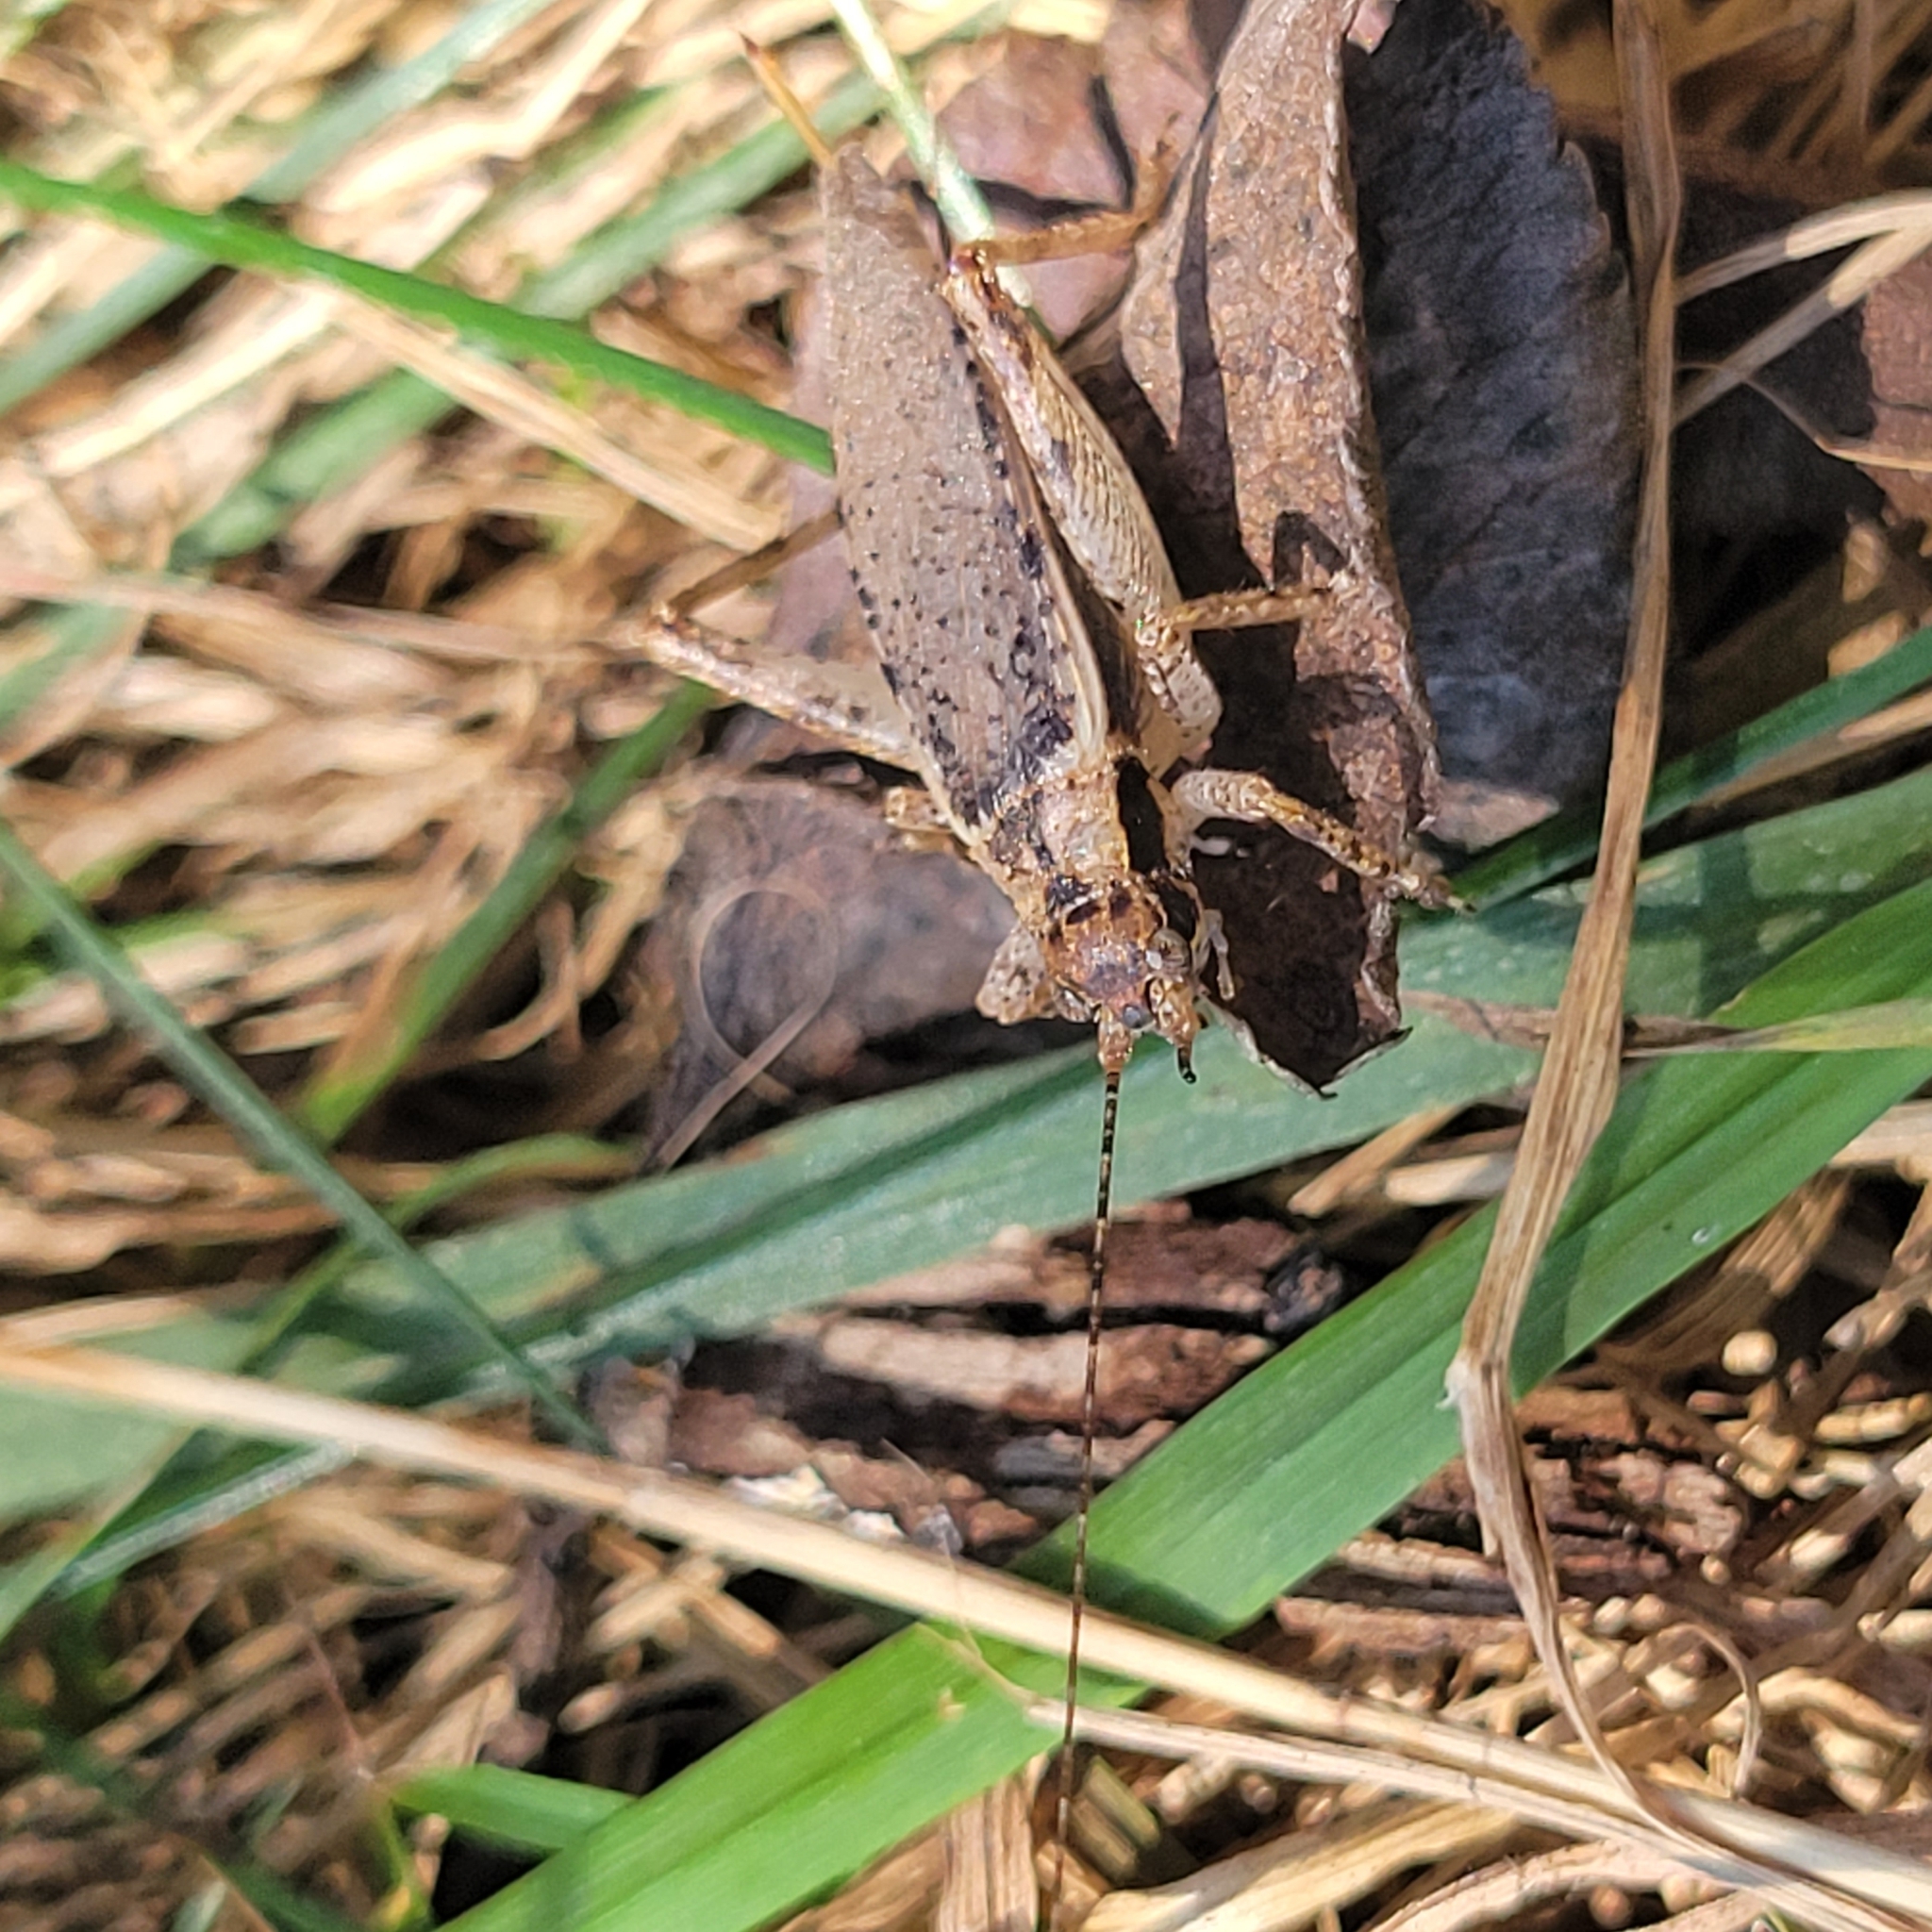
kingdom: Animalia
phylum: Arthropoda
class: Insecta
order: Orthoptera
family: Gryllidae
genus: Hapithus
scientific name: Hapithus saltator
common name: Jumping bush cricket
